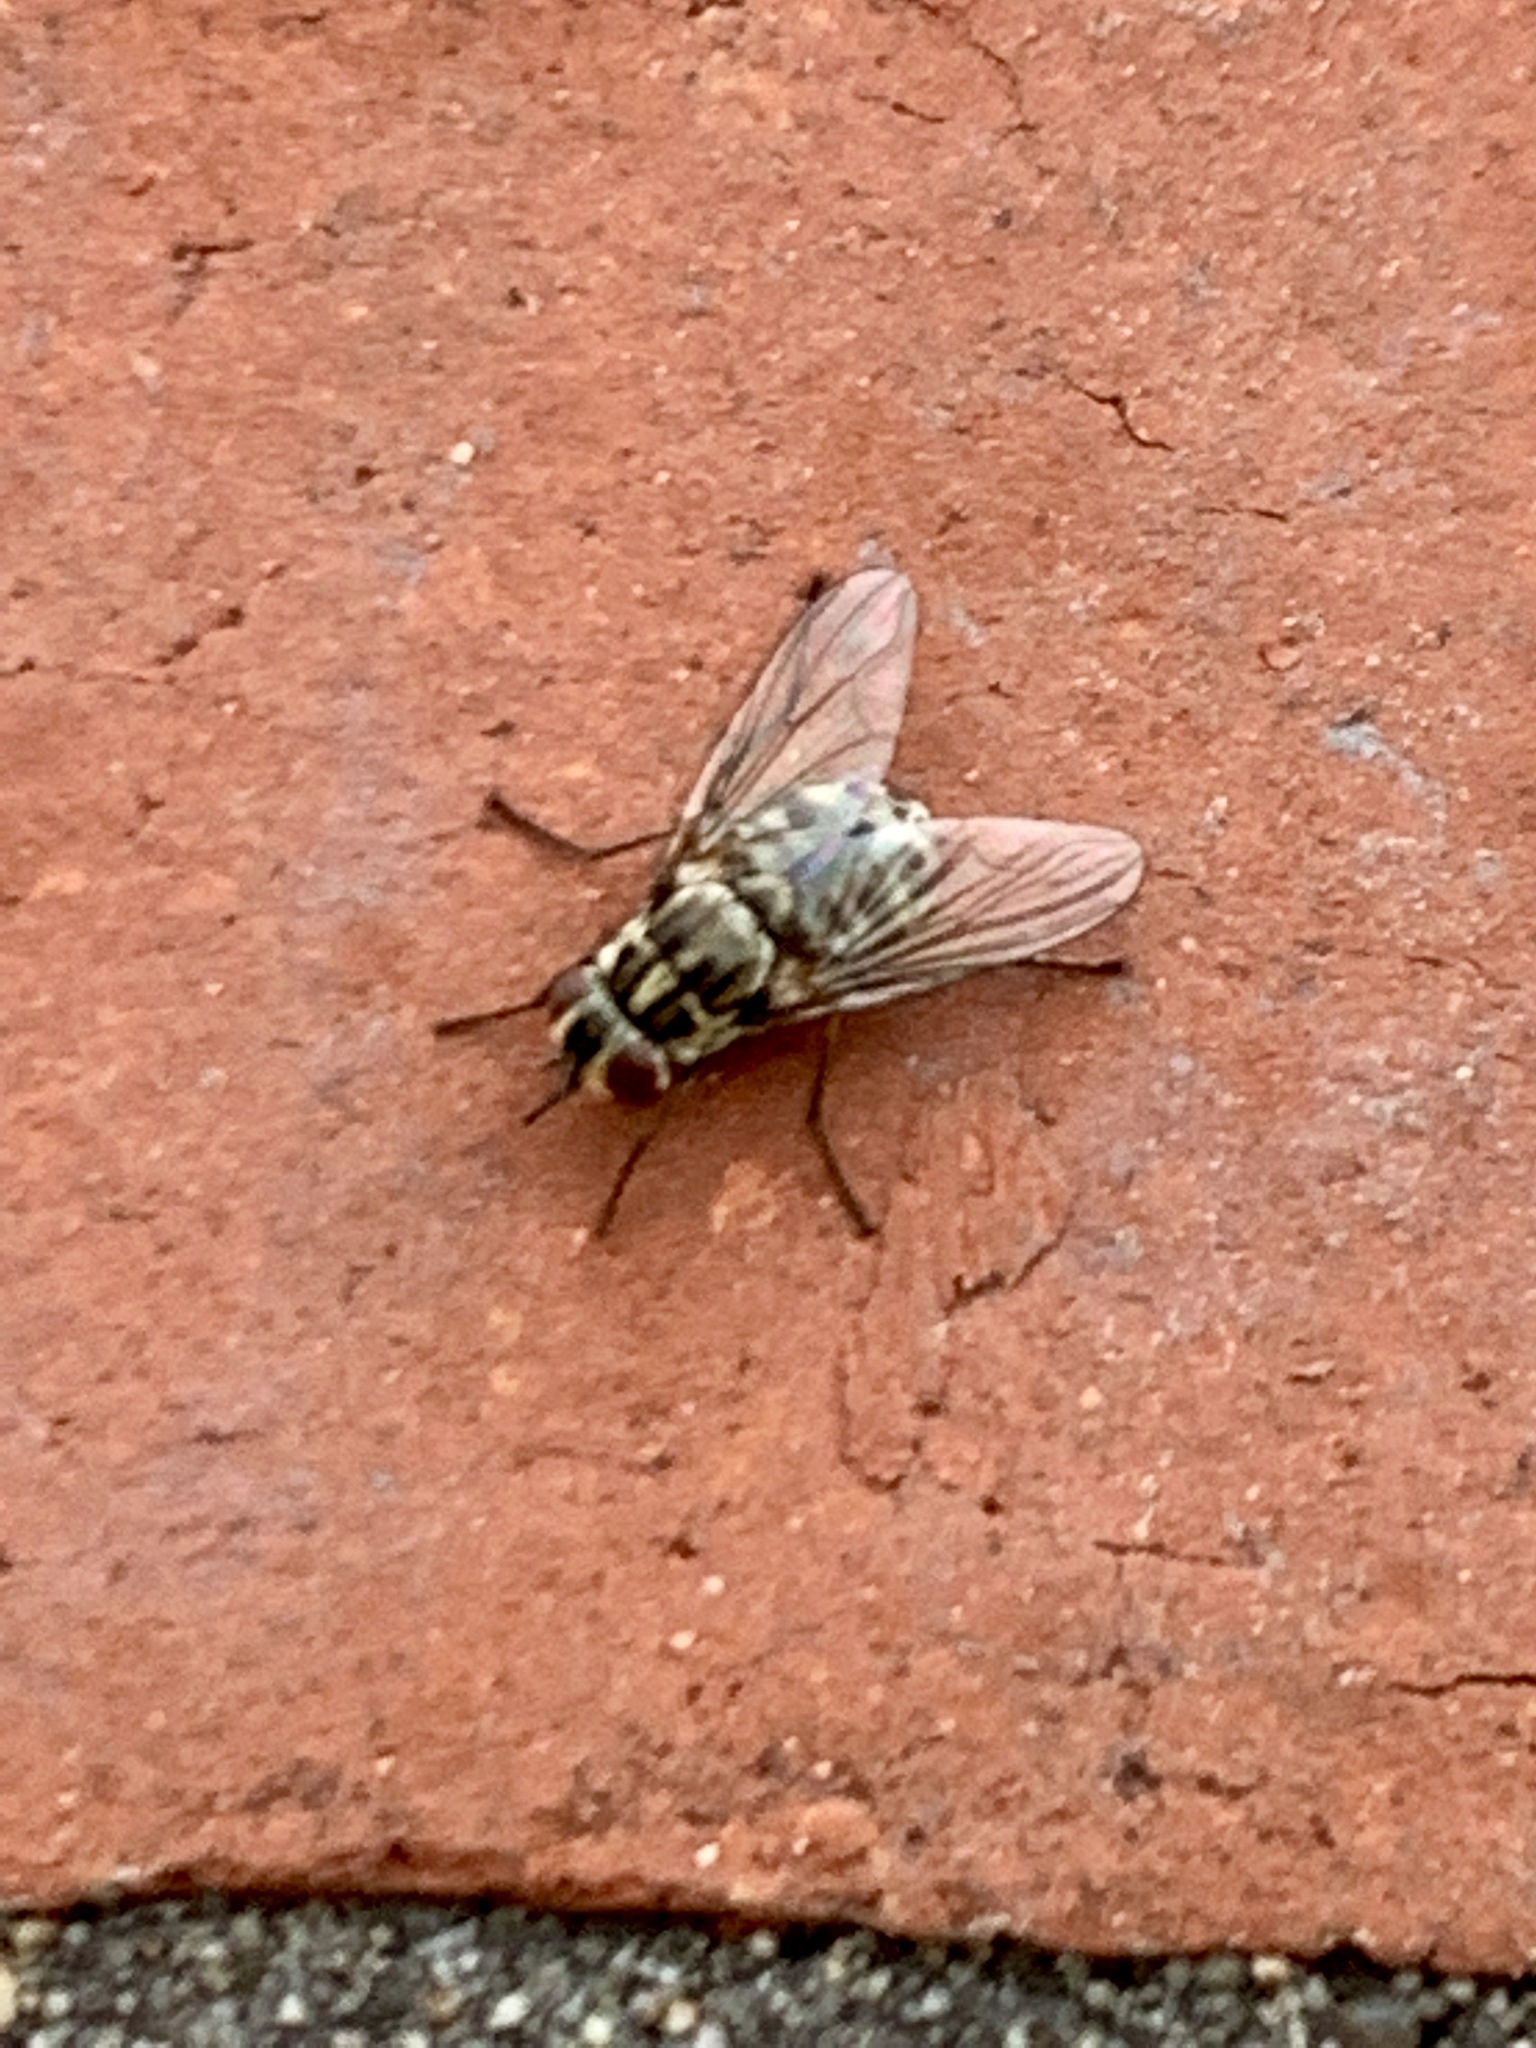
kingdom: Animalia
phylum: Arthropoda
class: Insecta
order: Diptera
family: Muscidae
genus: Stomoxys
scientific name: Stomoxys calcitrans
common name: Stable fly
